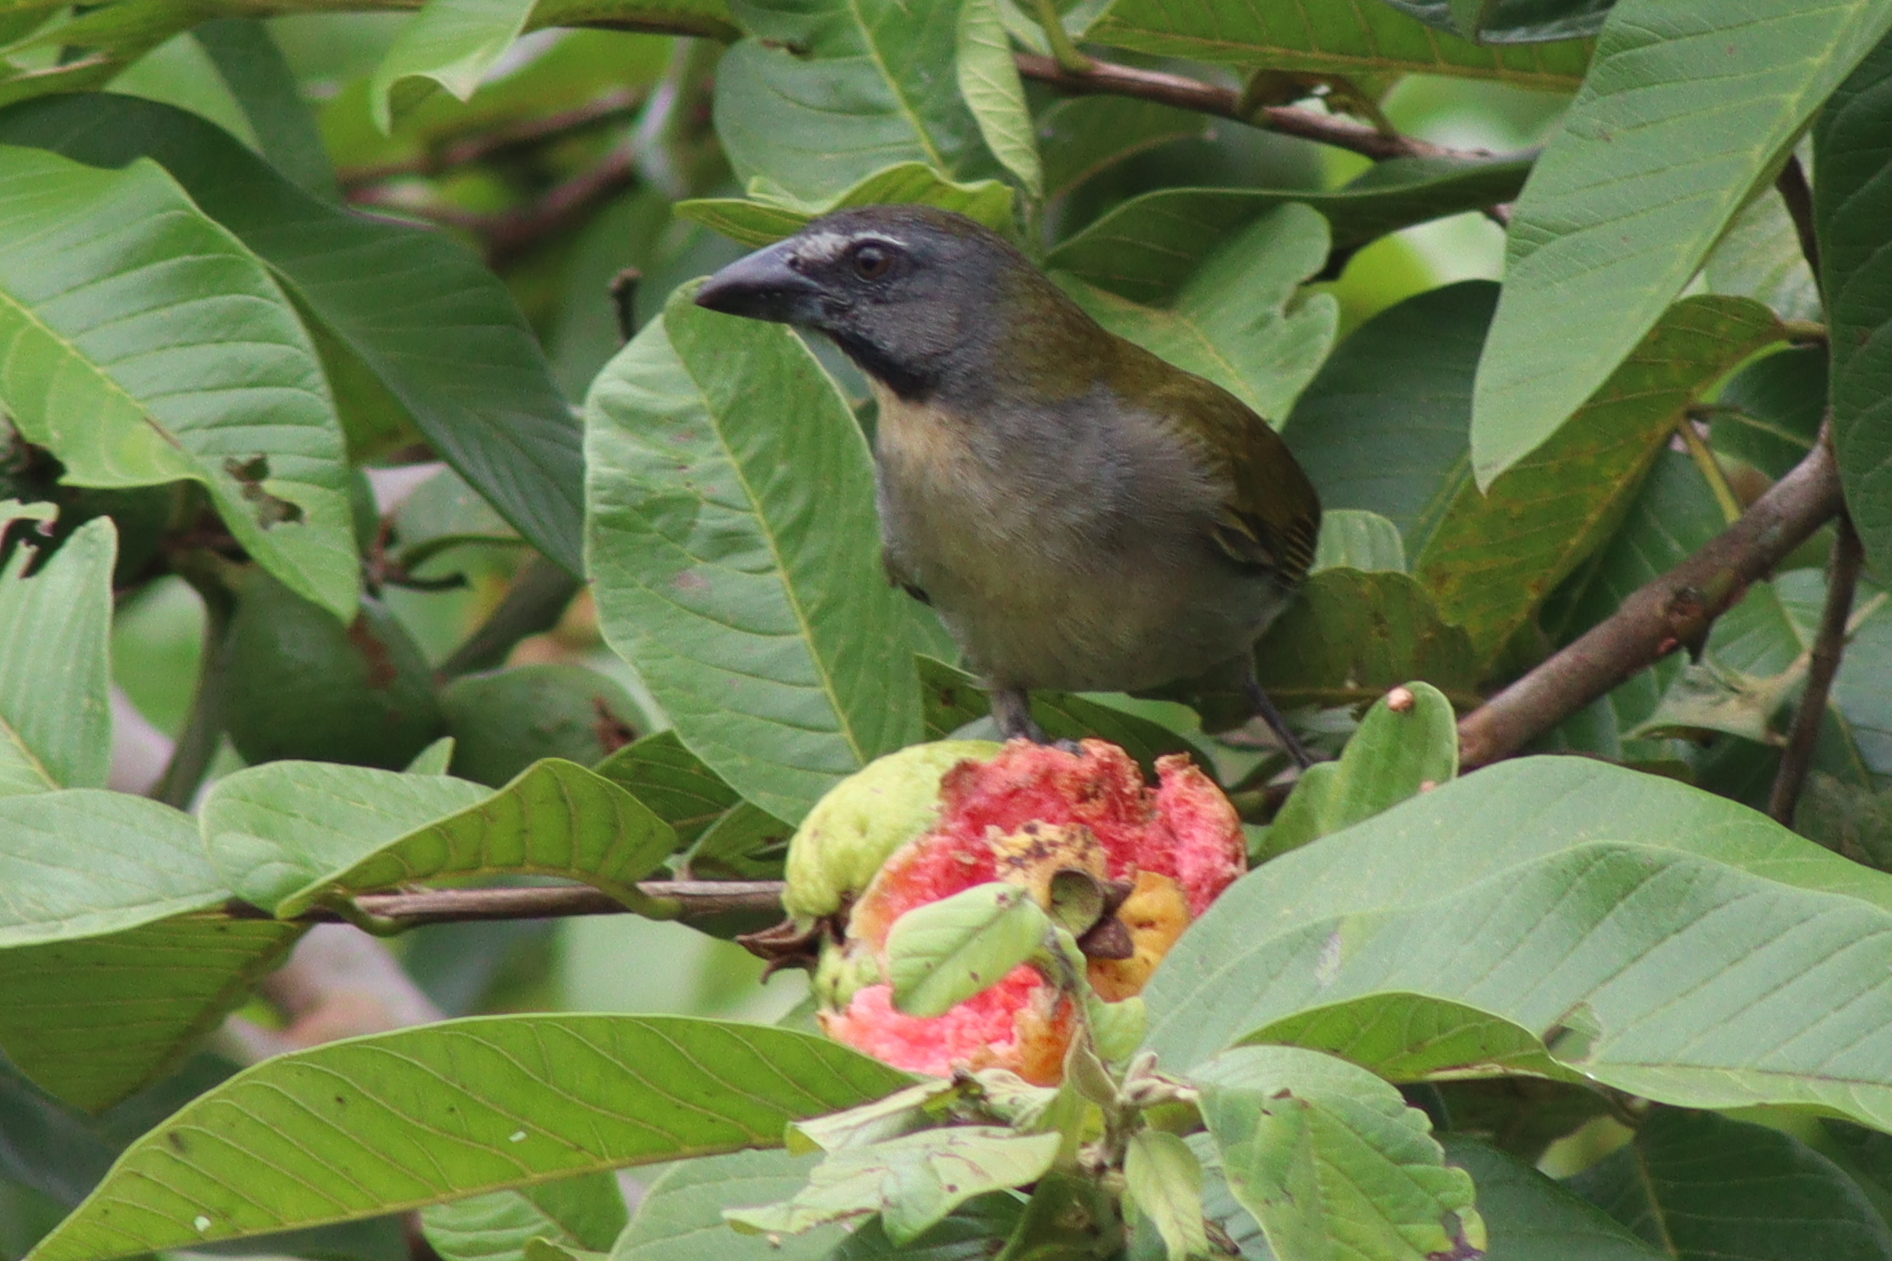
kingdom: Animalia
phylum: Chordata
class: Aves
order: Passeriformes
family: Thraupidae
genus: Saltator
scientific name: Saltator maximus
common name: Buff-throated saltator
